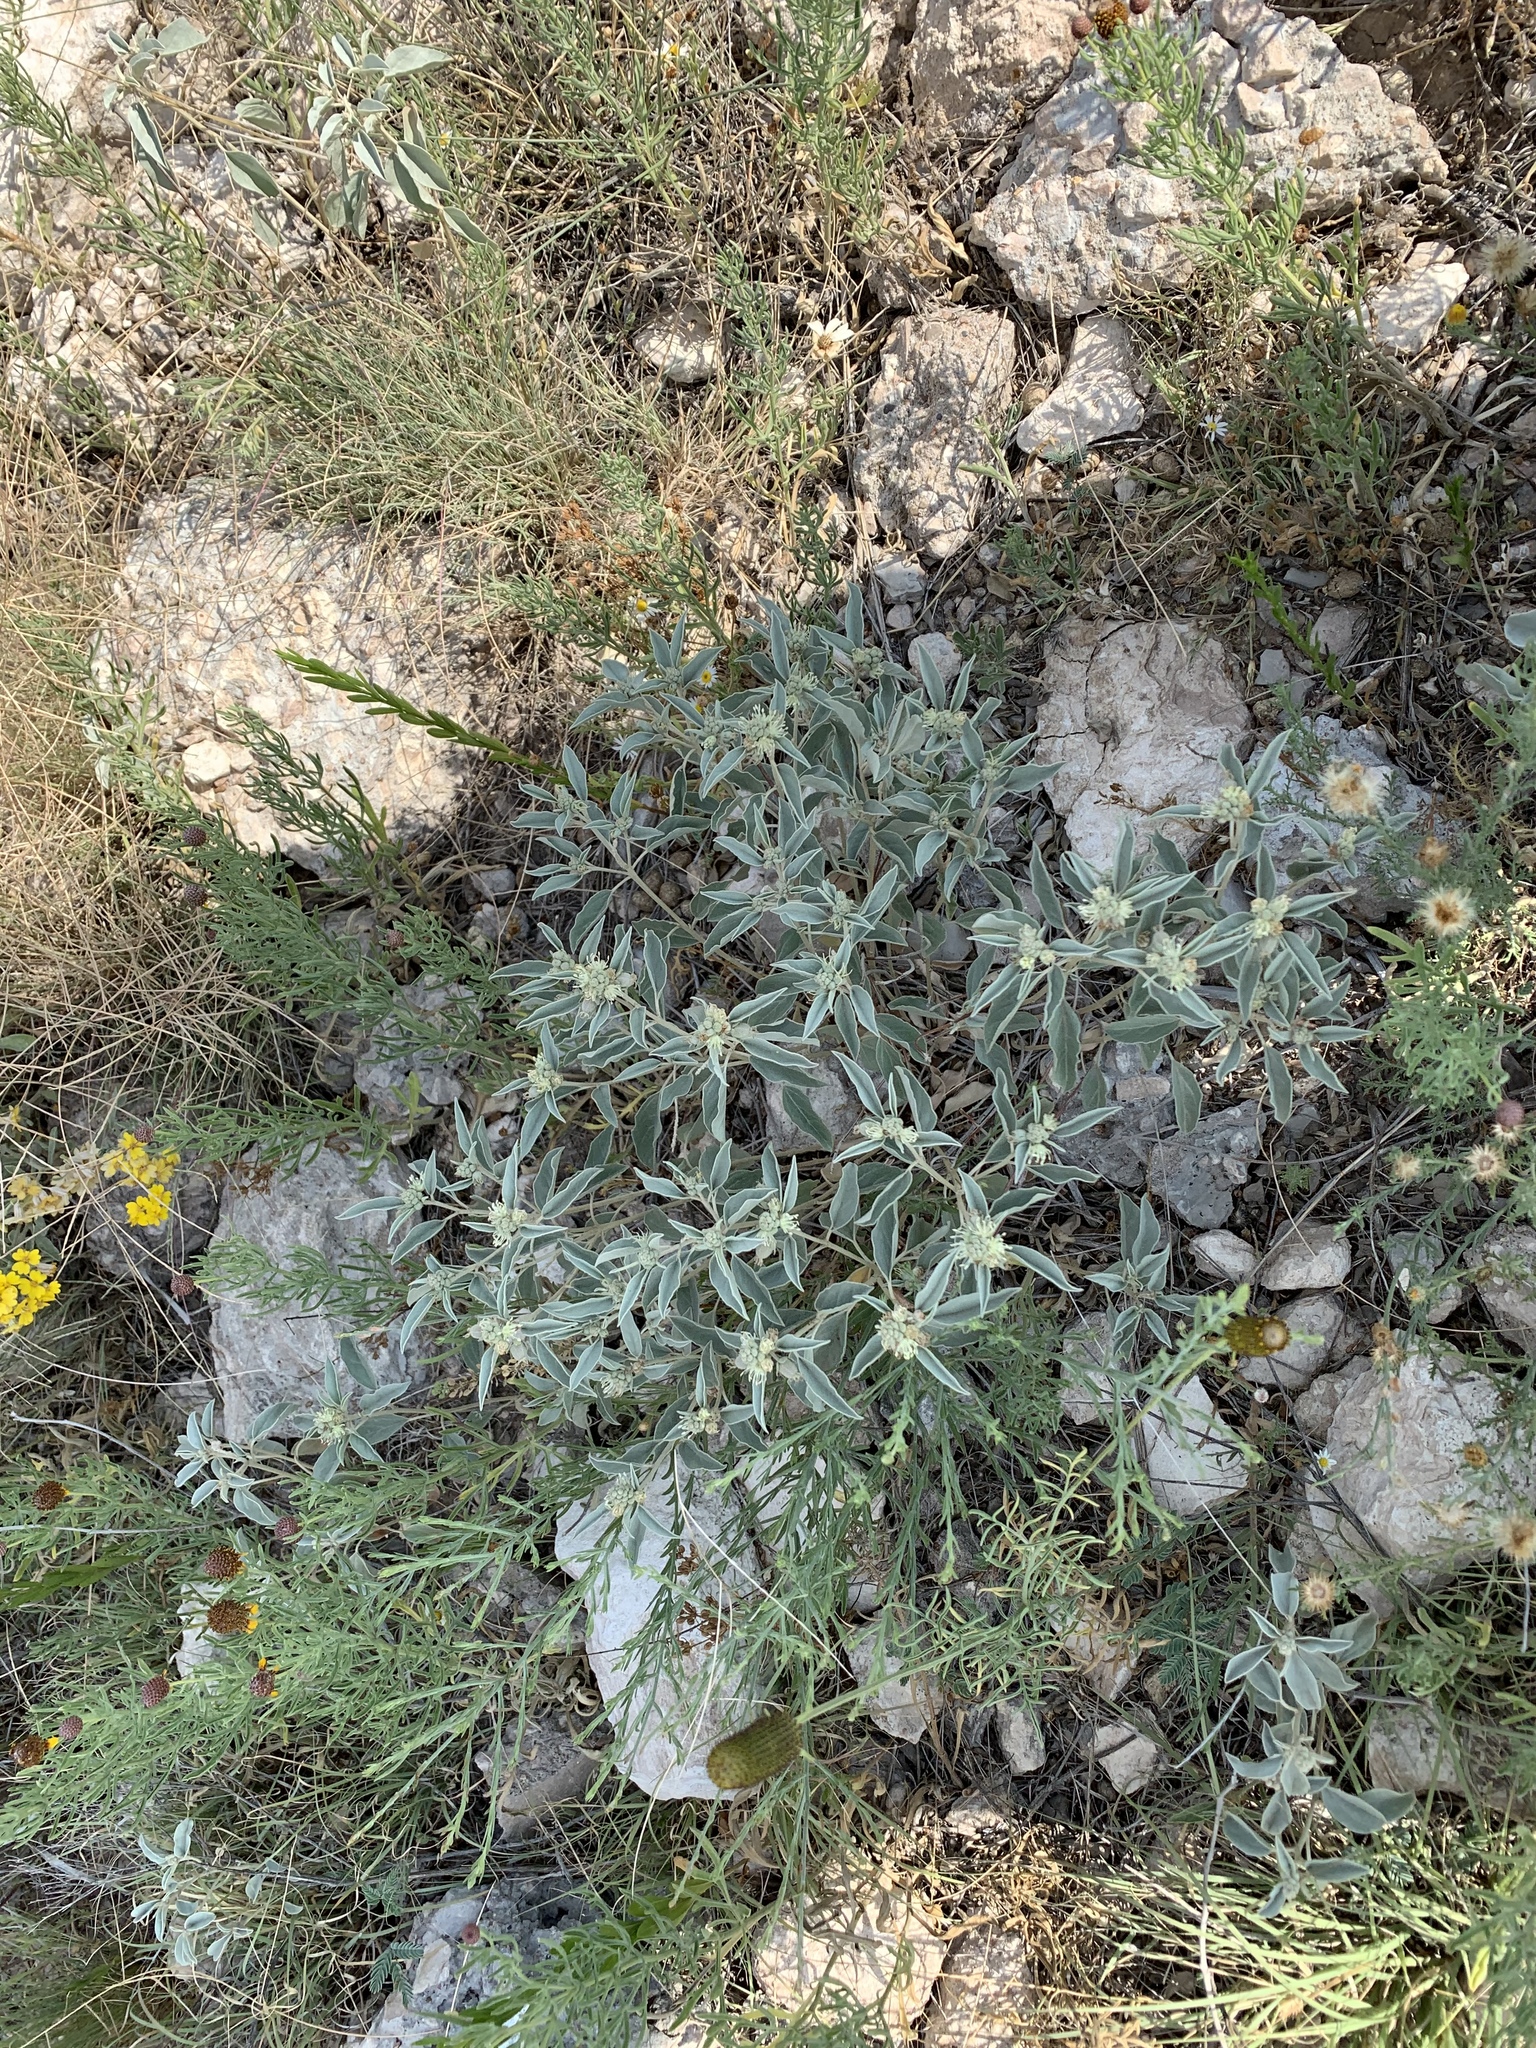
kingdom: Plantae
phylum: Tracheophyta
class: Magnoliopsida
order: Malpighiales
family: Euphorbiaceae
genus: Croton
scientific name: Croton pottsii
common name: Leatherweed
